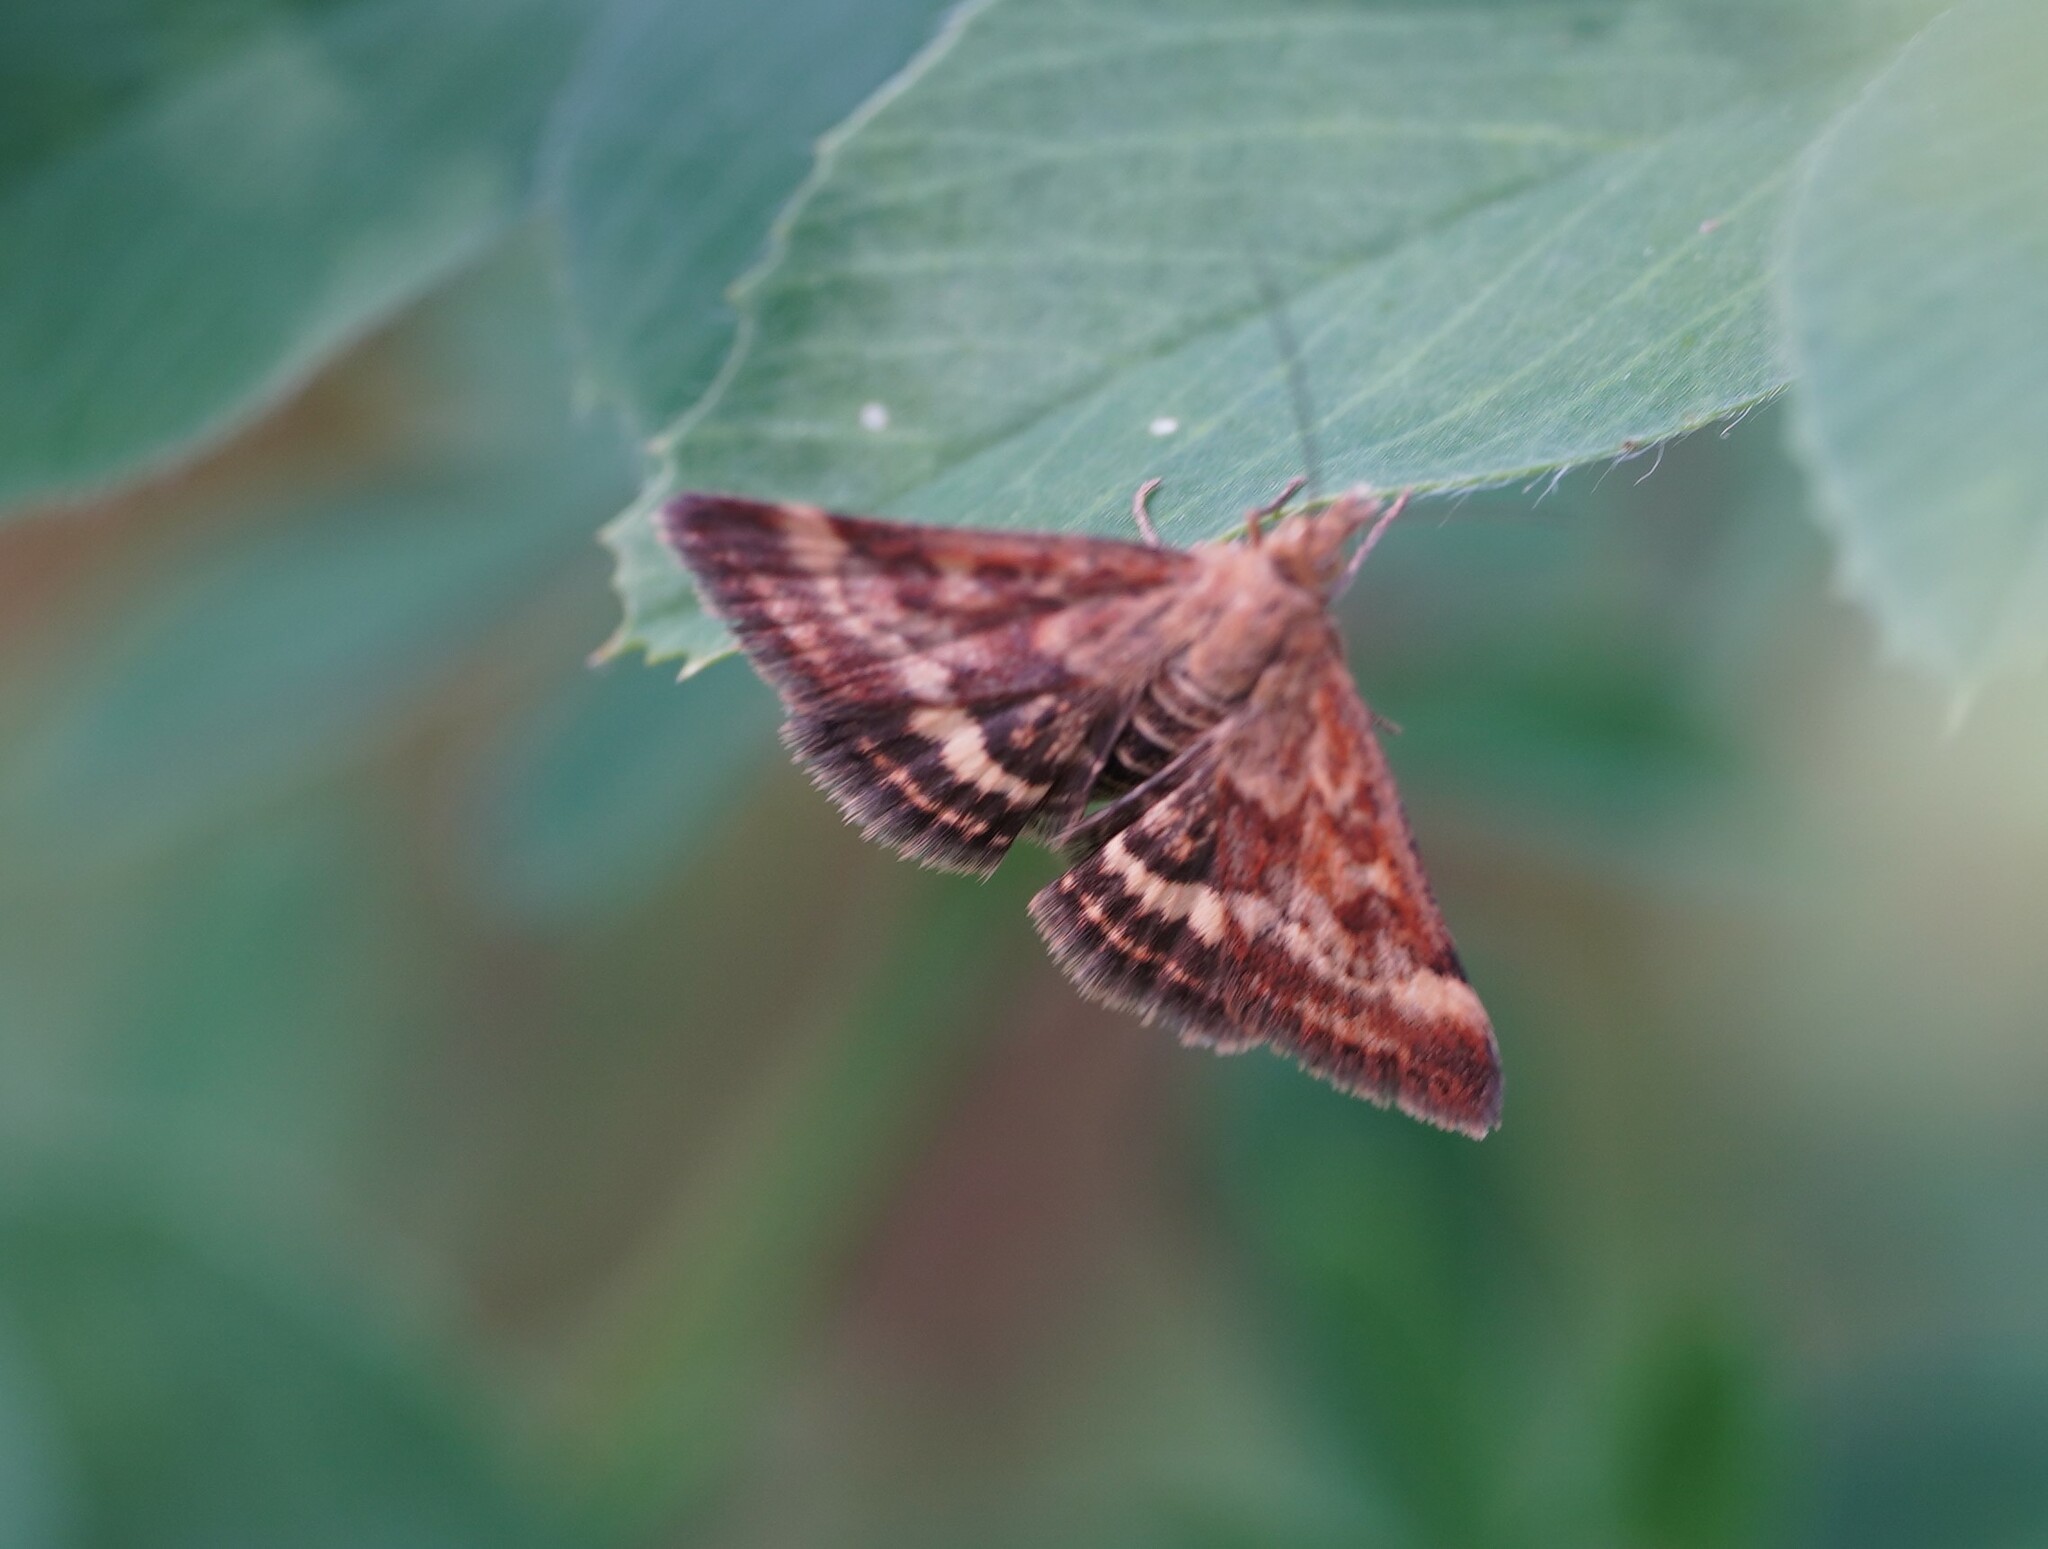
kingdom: Animalia
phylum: Arthropoda
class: Insecta
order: Lepidoptera
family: Crambidae
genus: Pyrausta
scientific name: Pyrausta despicata
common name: Straw-barred pearl
